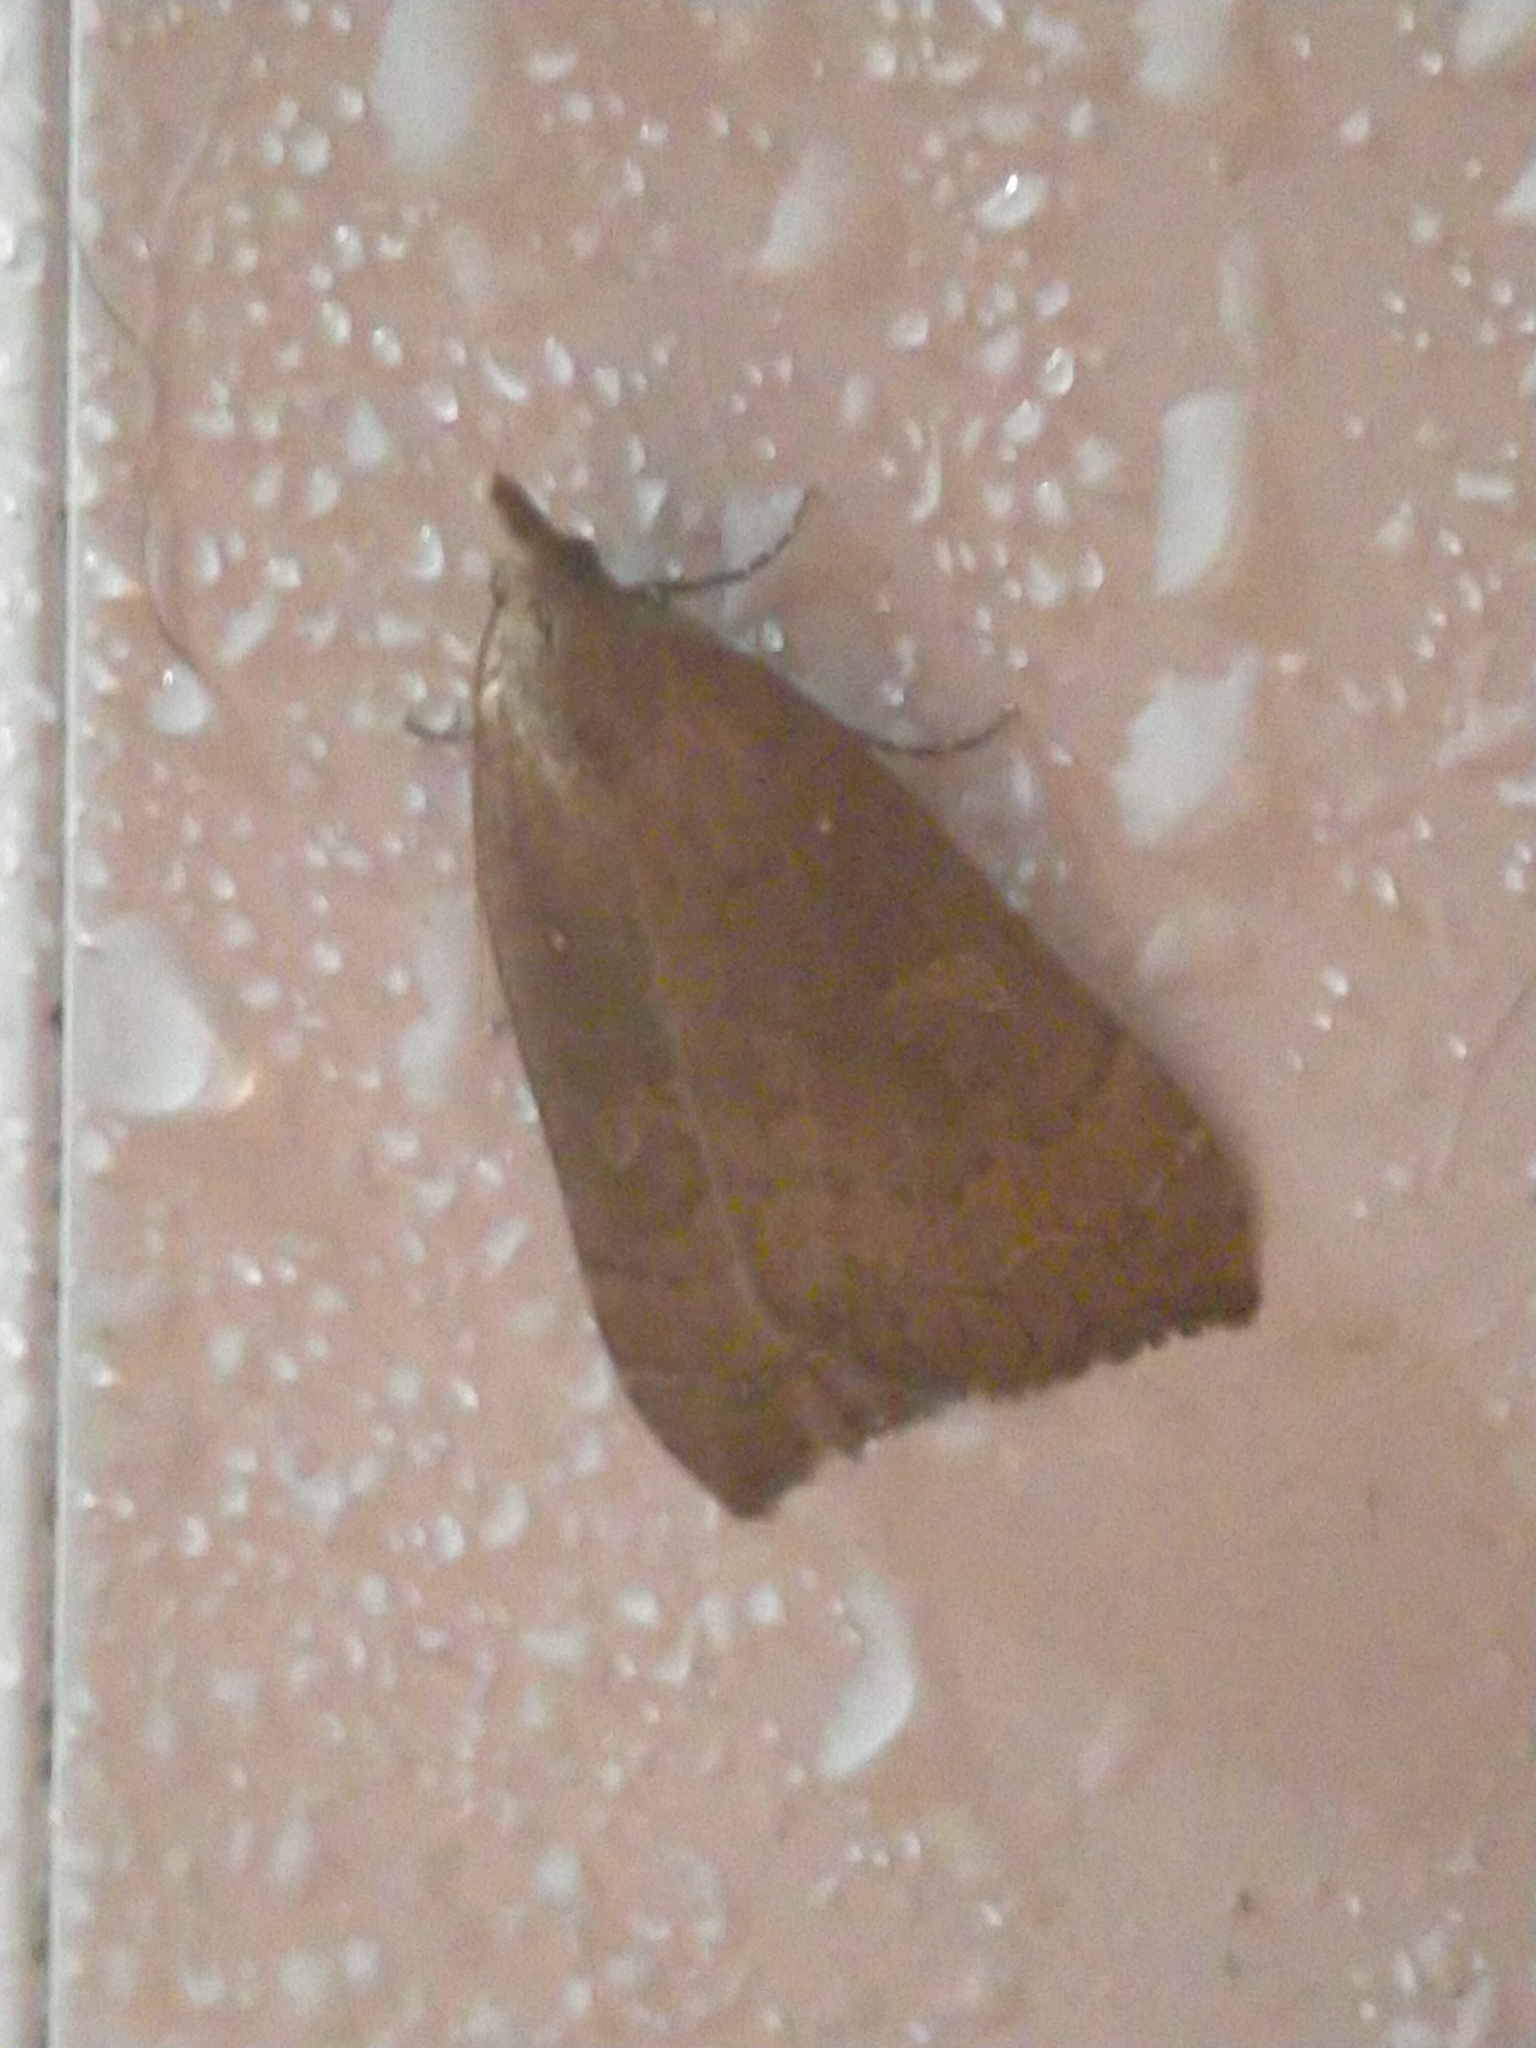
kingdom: Animalia
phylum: Arthropoda
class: Insecta
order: Lepidoptera
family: Erebidae
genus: Rhapsa
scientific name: Rhapsa scotosialis
